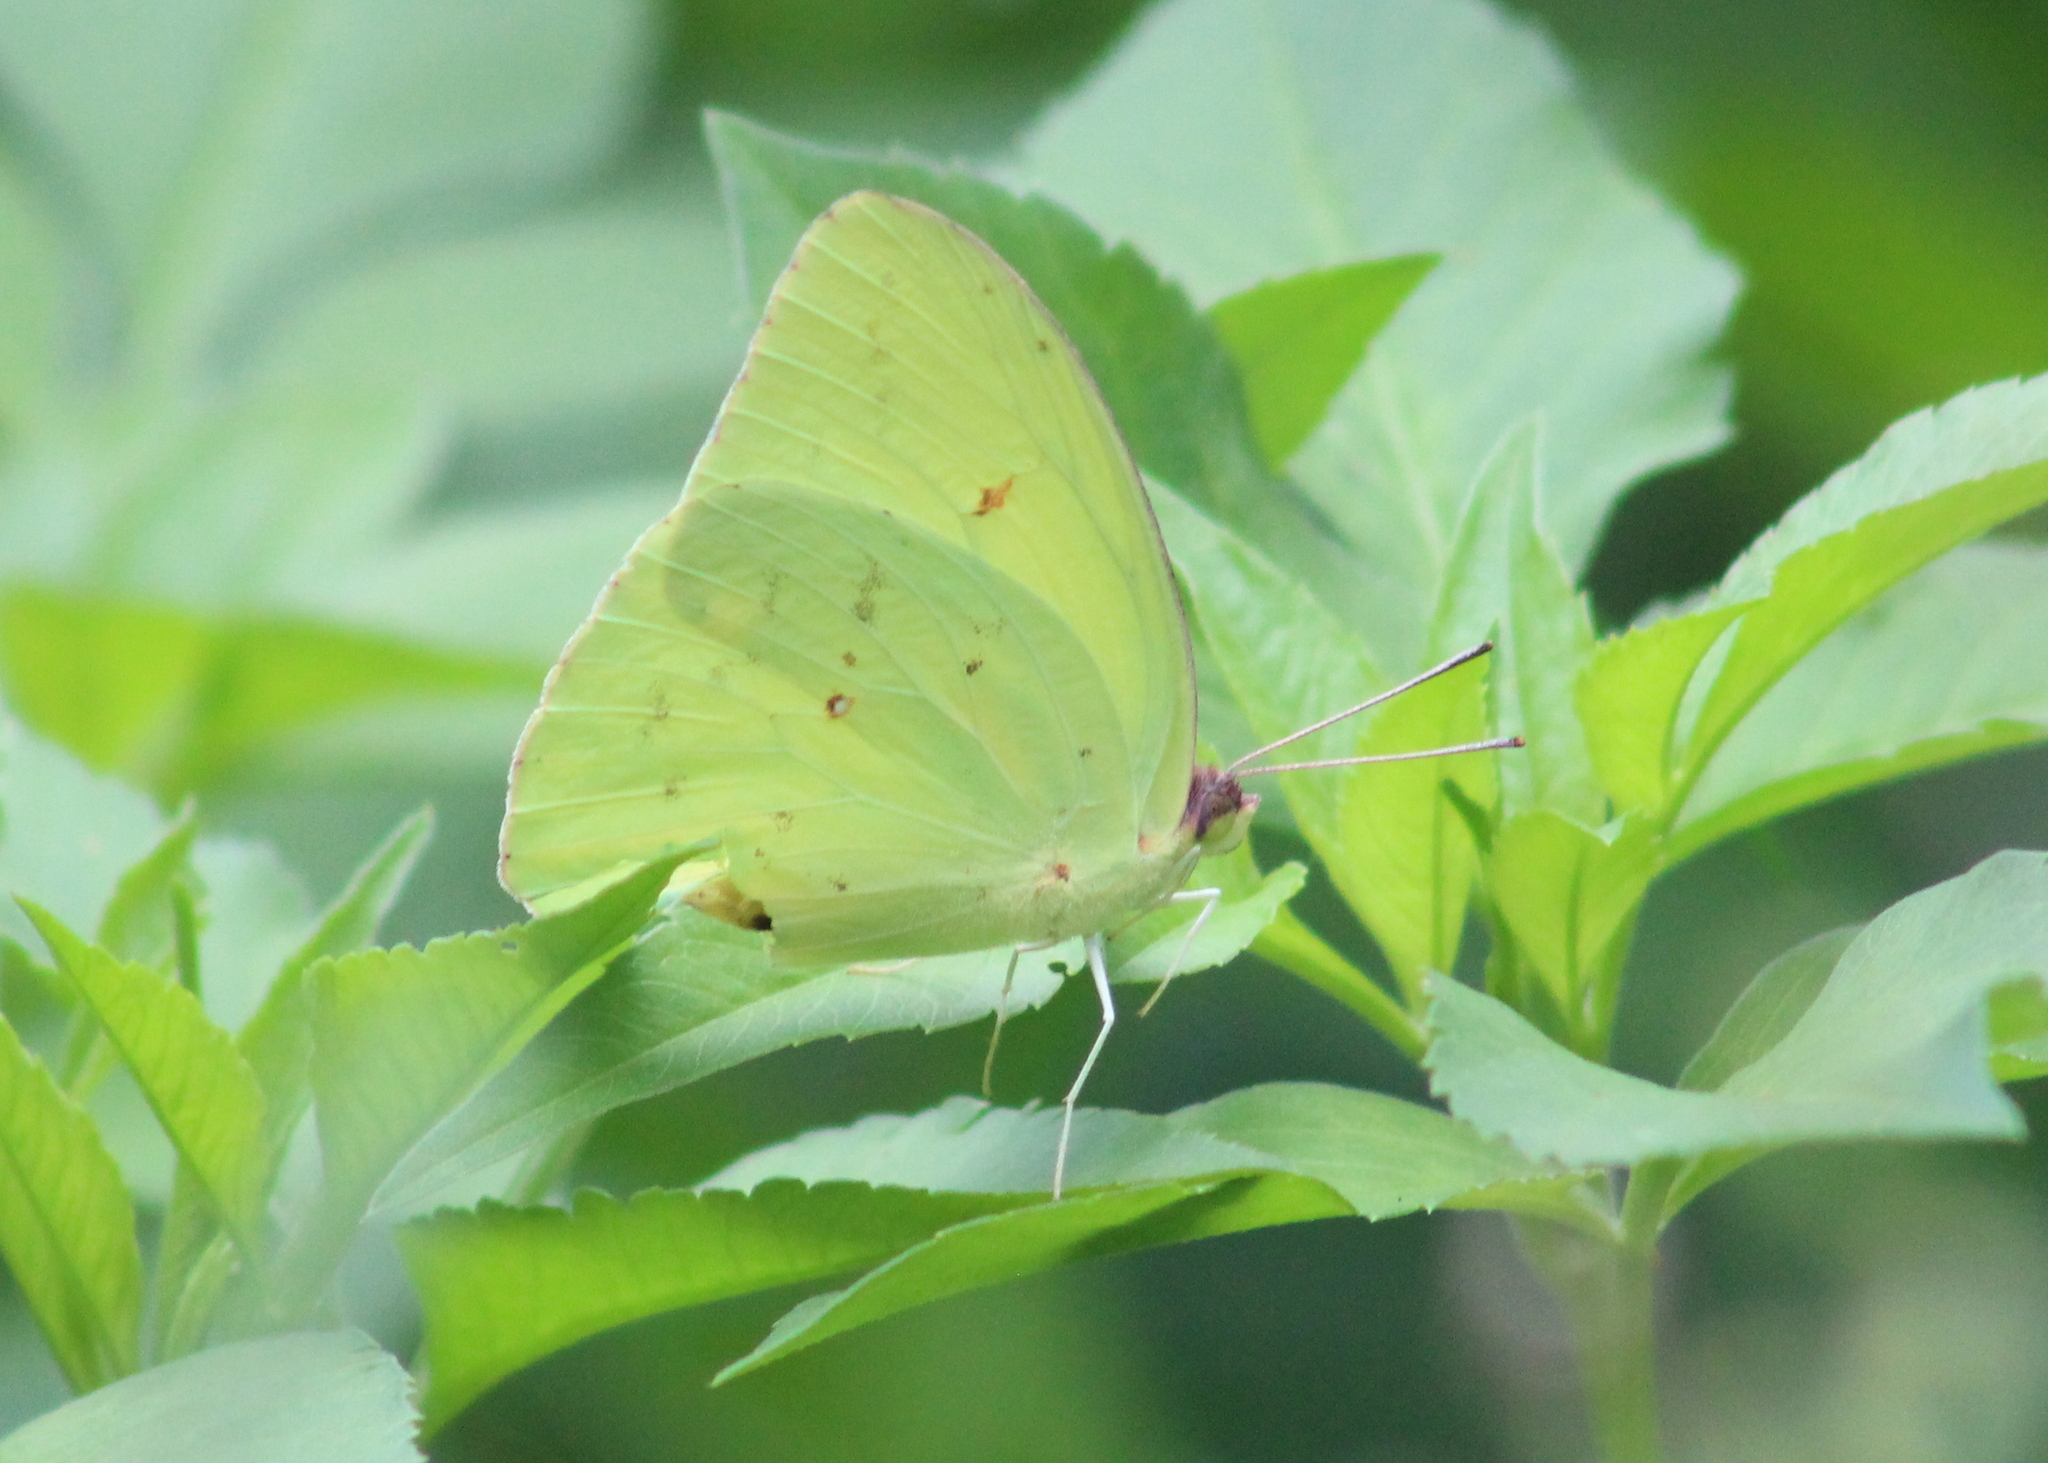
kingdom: Animalia
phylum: Arthropoda
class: Insecta
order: Lepidoptera
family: Pieridae
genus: Phoebis
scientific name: Phoebis sennae
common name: Cloudless sulphur
